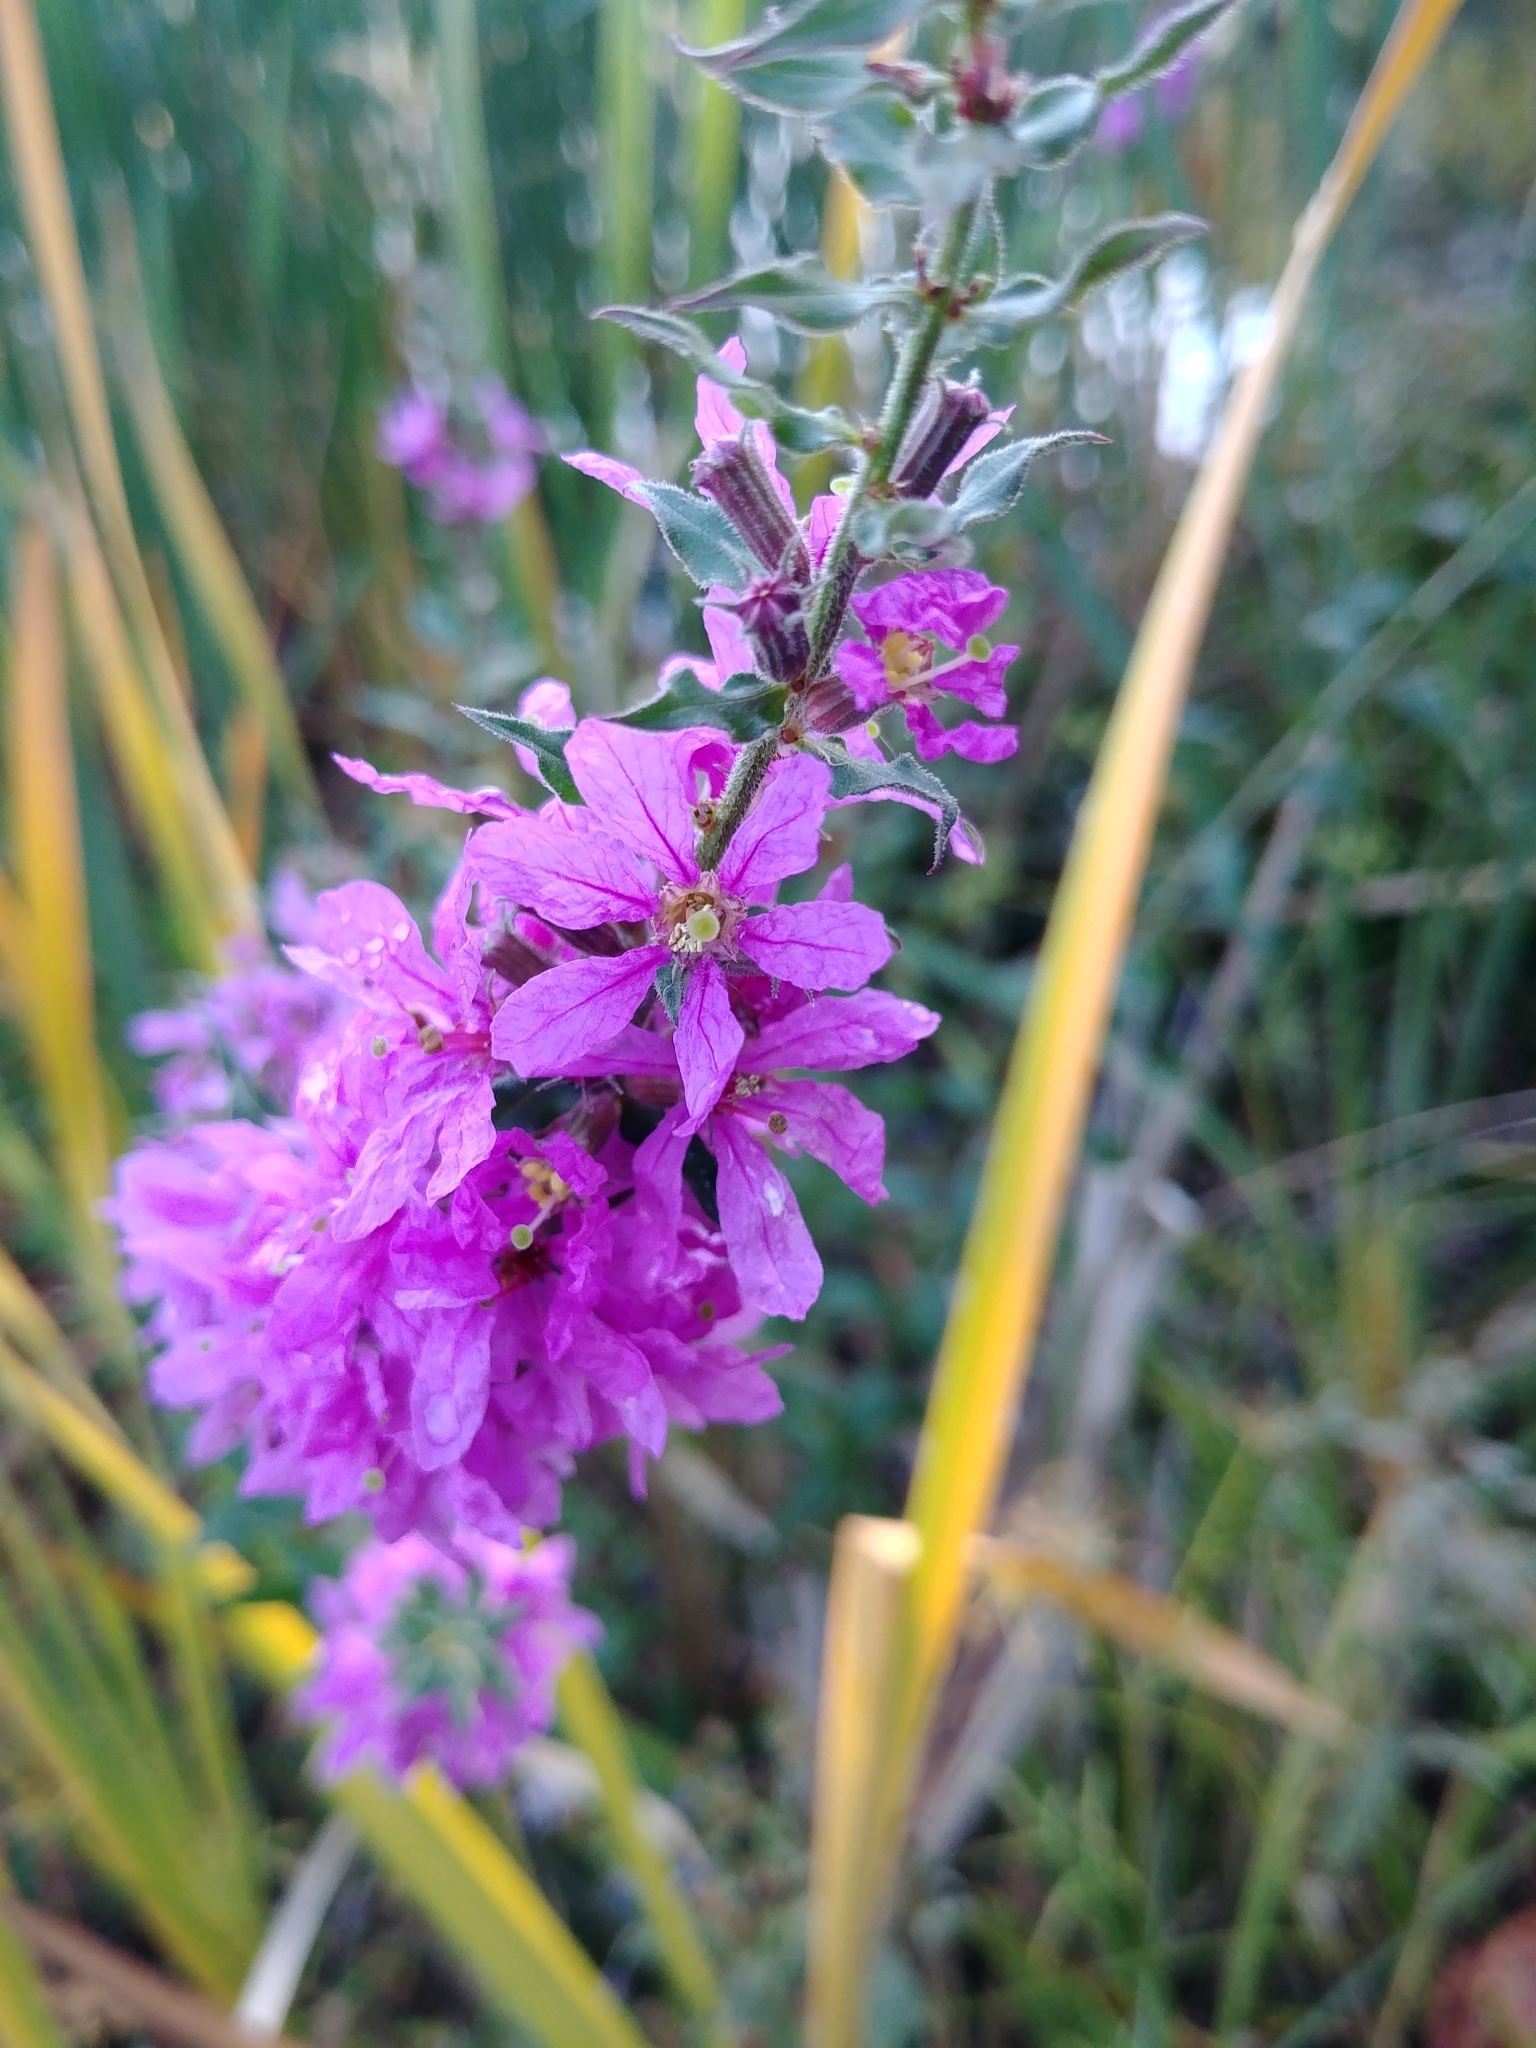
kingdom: Plantae
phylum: Tracheophyta
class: Magnoliopsida
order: Myrtales
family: Lythraceae
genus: Lythrum
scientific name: Lythrum salicaria
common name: Purple loosestrife
